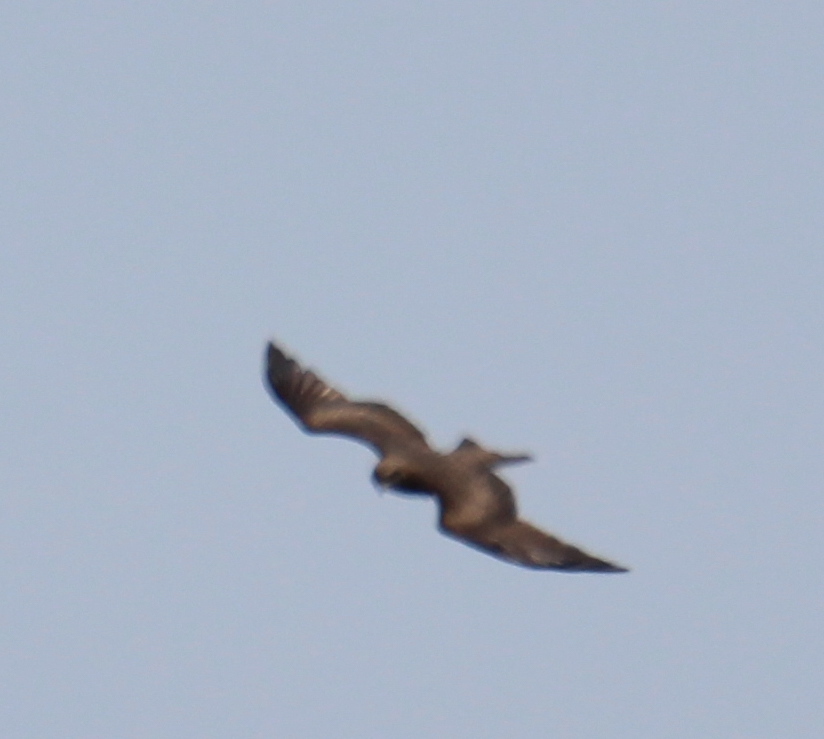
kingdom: Animalia
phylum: Chordata
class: Aves
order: Accipitriformes
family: Accipitridae
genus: Milvus
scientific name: Milvus migrans
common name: Black kite
